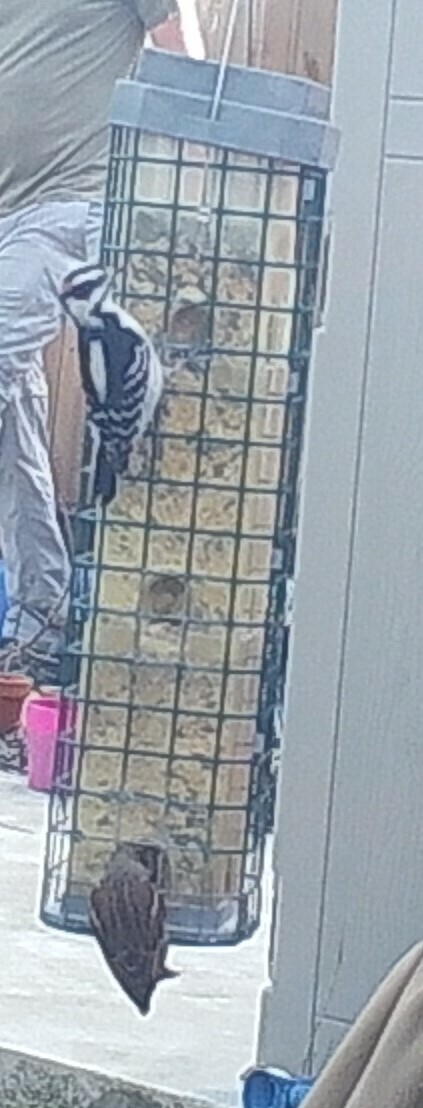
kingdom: Animalia
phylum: Chordata
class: Aves
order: Piciformes
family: Picidae
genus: Dryobates
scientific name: Dryobates pubescens
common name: Downy woodpecker
